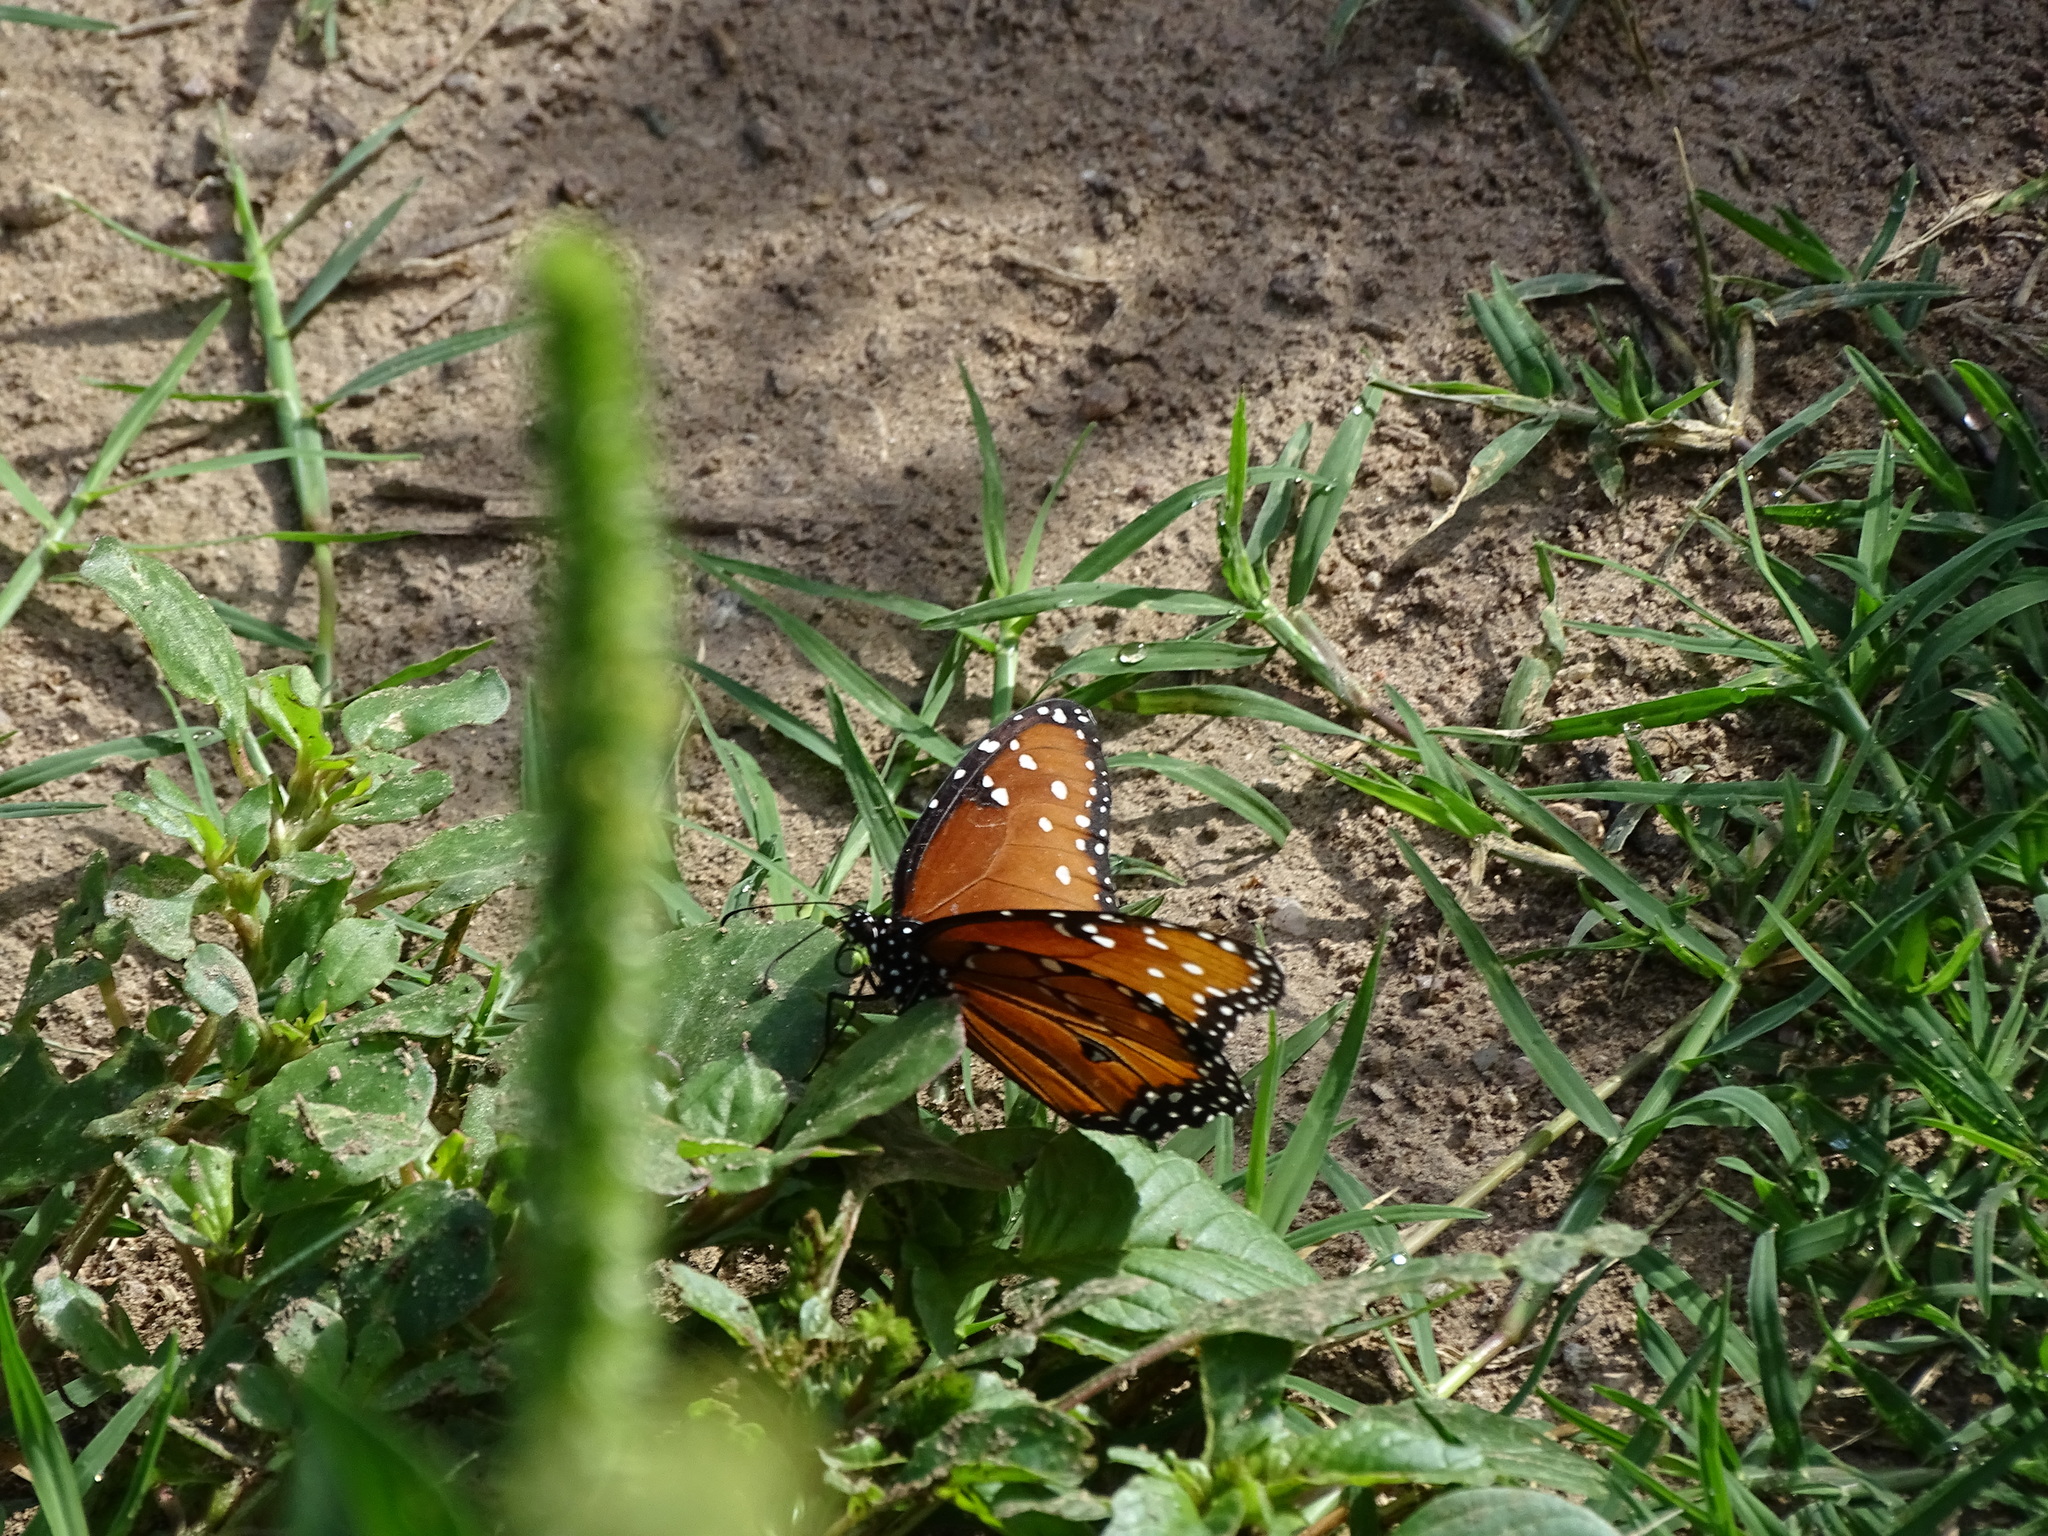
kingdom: Animalia
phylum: Arthropoda
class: Insecta
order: Lepidoptera
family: Nymphalidae
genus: Danaus
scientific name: Danaus gilippus
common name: Queen
